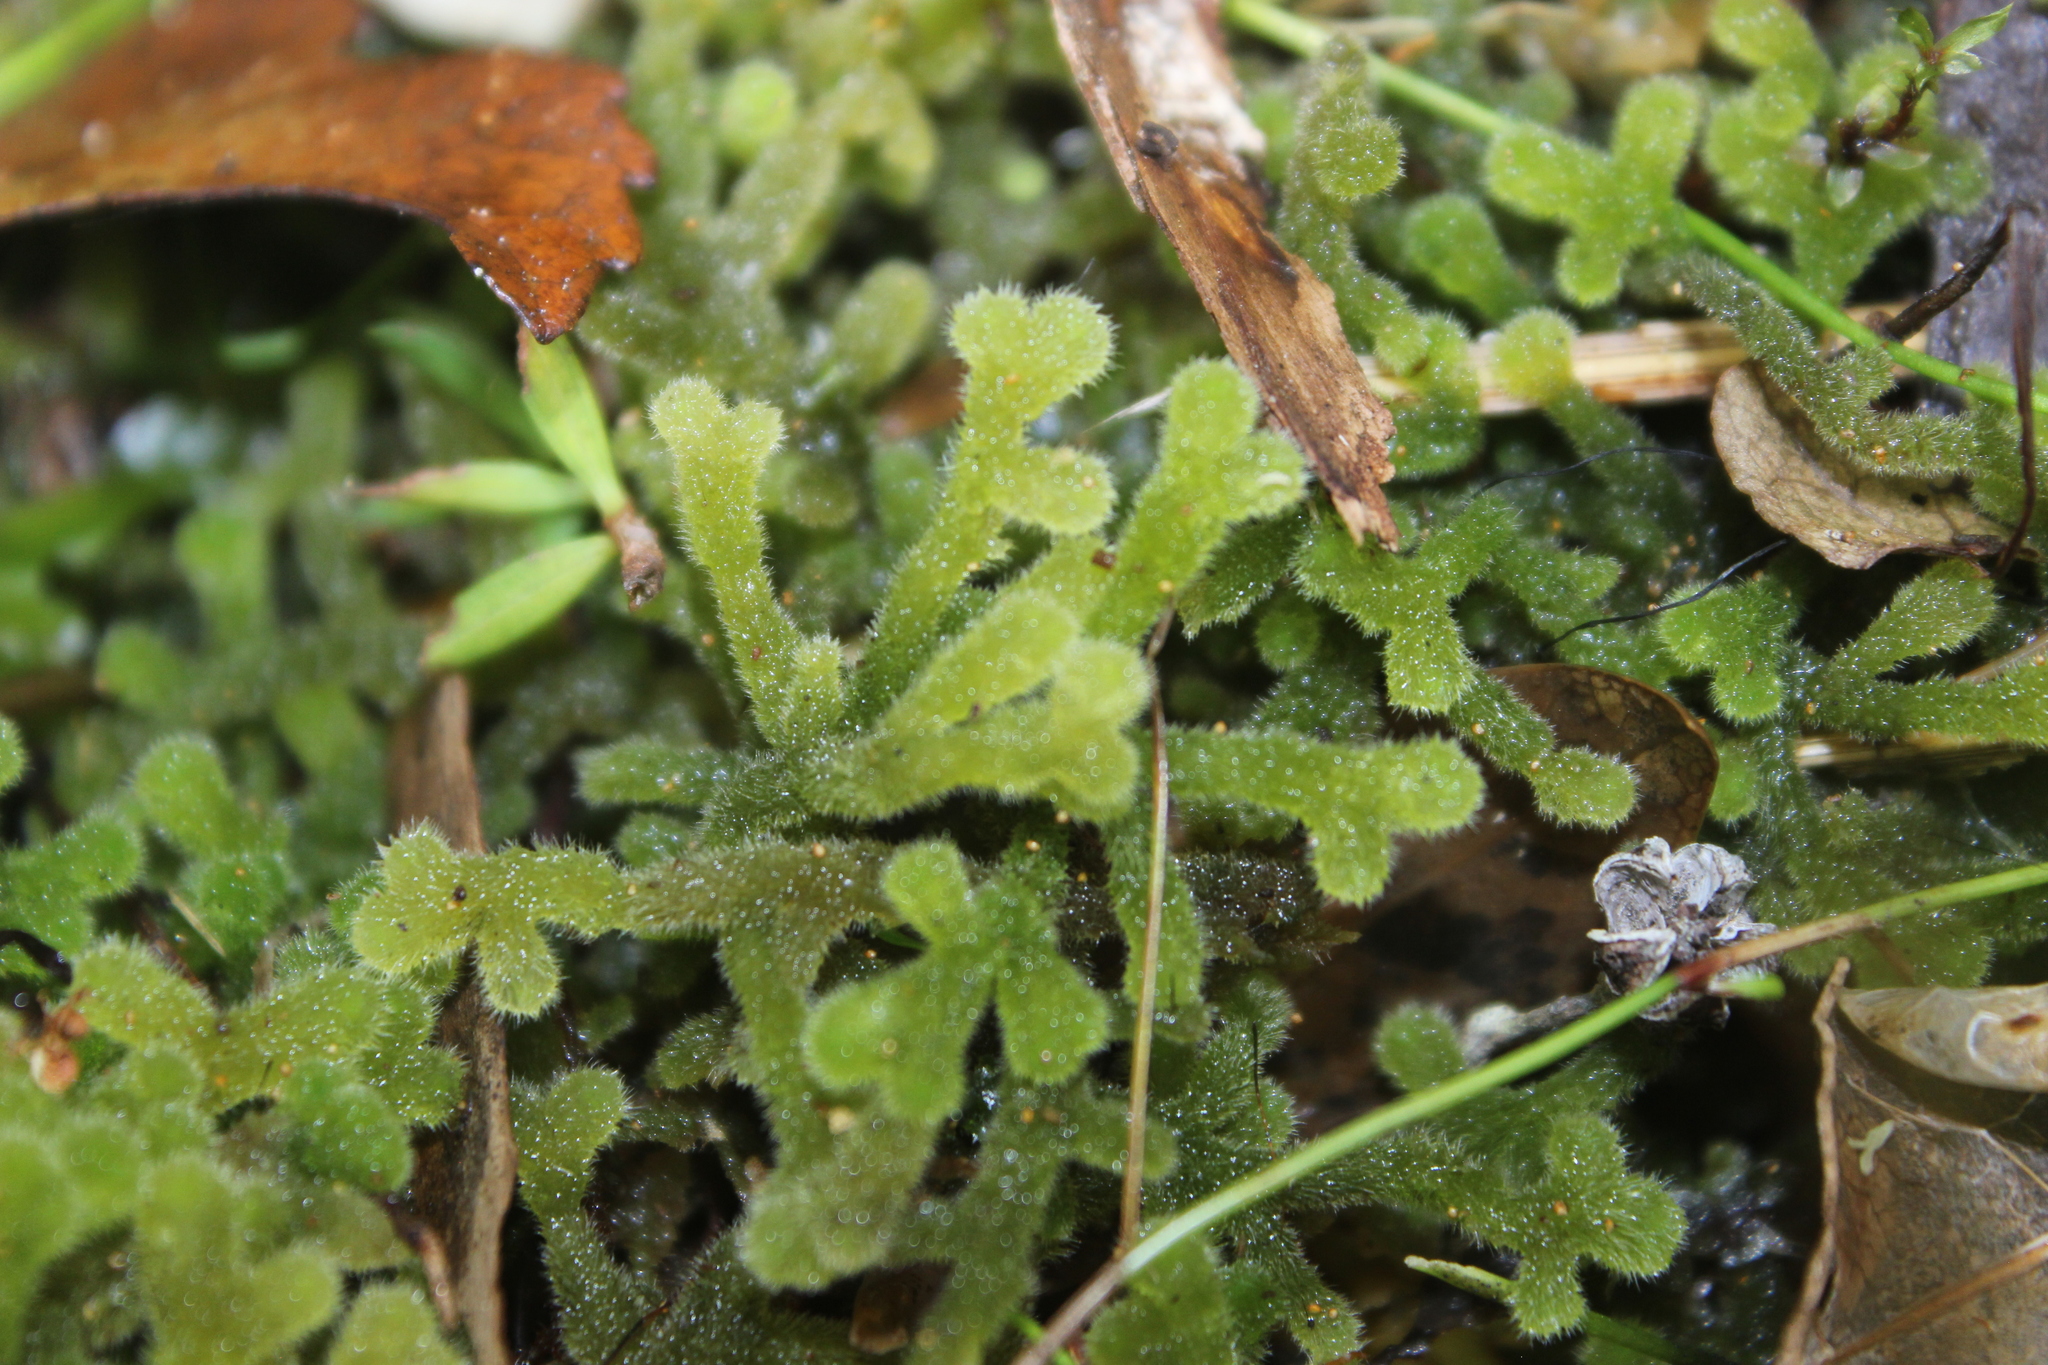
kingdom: Plantae
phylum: Marchantiophyta
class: Jungermanniopsida
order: Jungermanniales
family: Trichocoleaceae
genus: Leiomitra
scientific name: Leiomitra lanata
